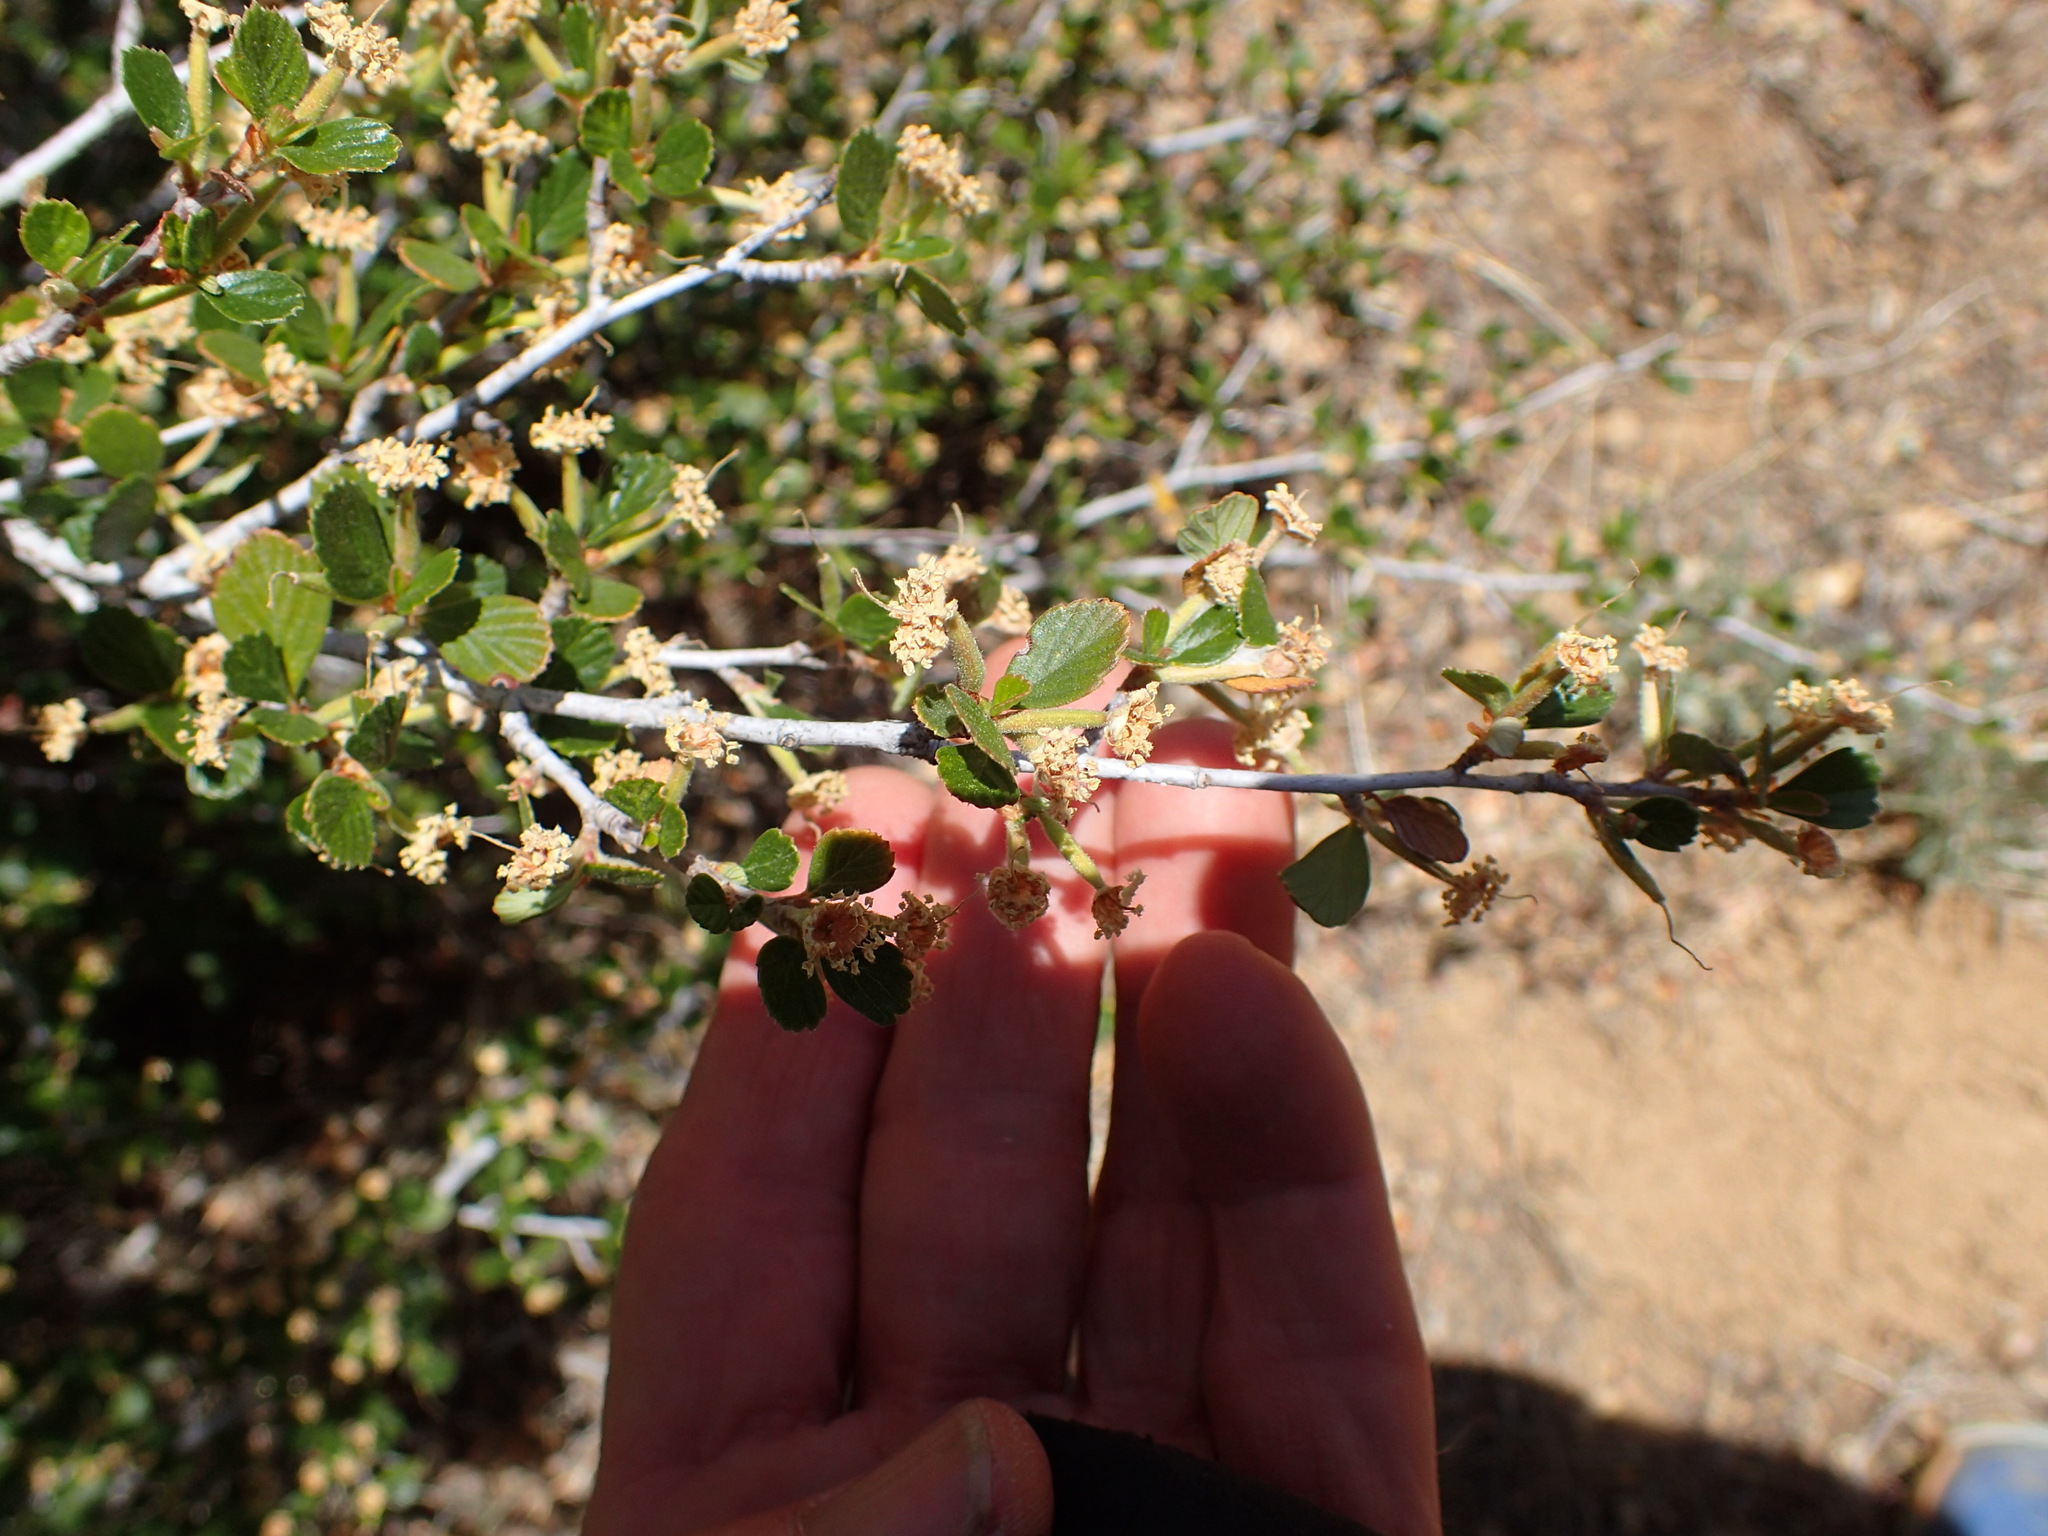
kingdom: Plantae
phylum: Tracheophyta
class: Magnoliopsida
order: Rosales
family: Rosaceae
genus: Cercocarpus
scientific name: Cercocarpus betuloides
